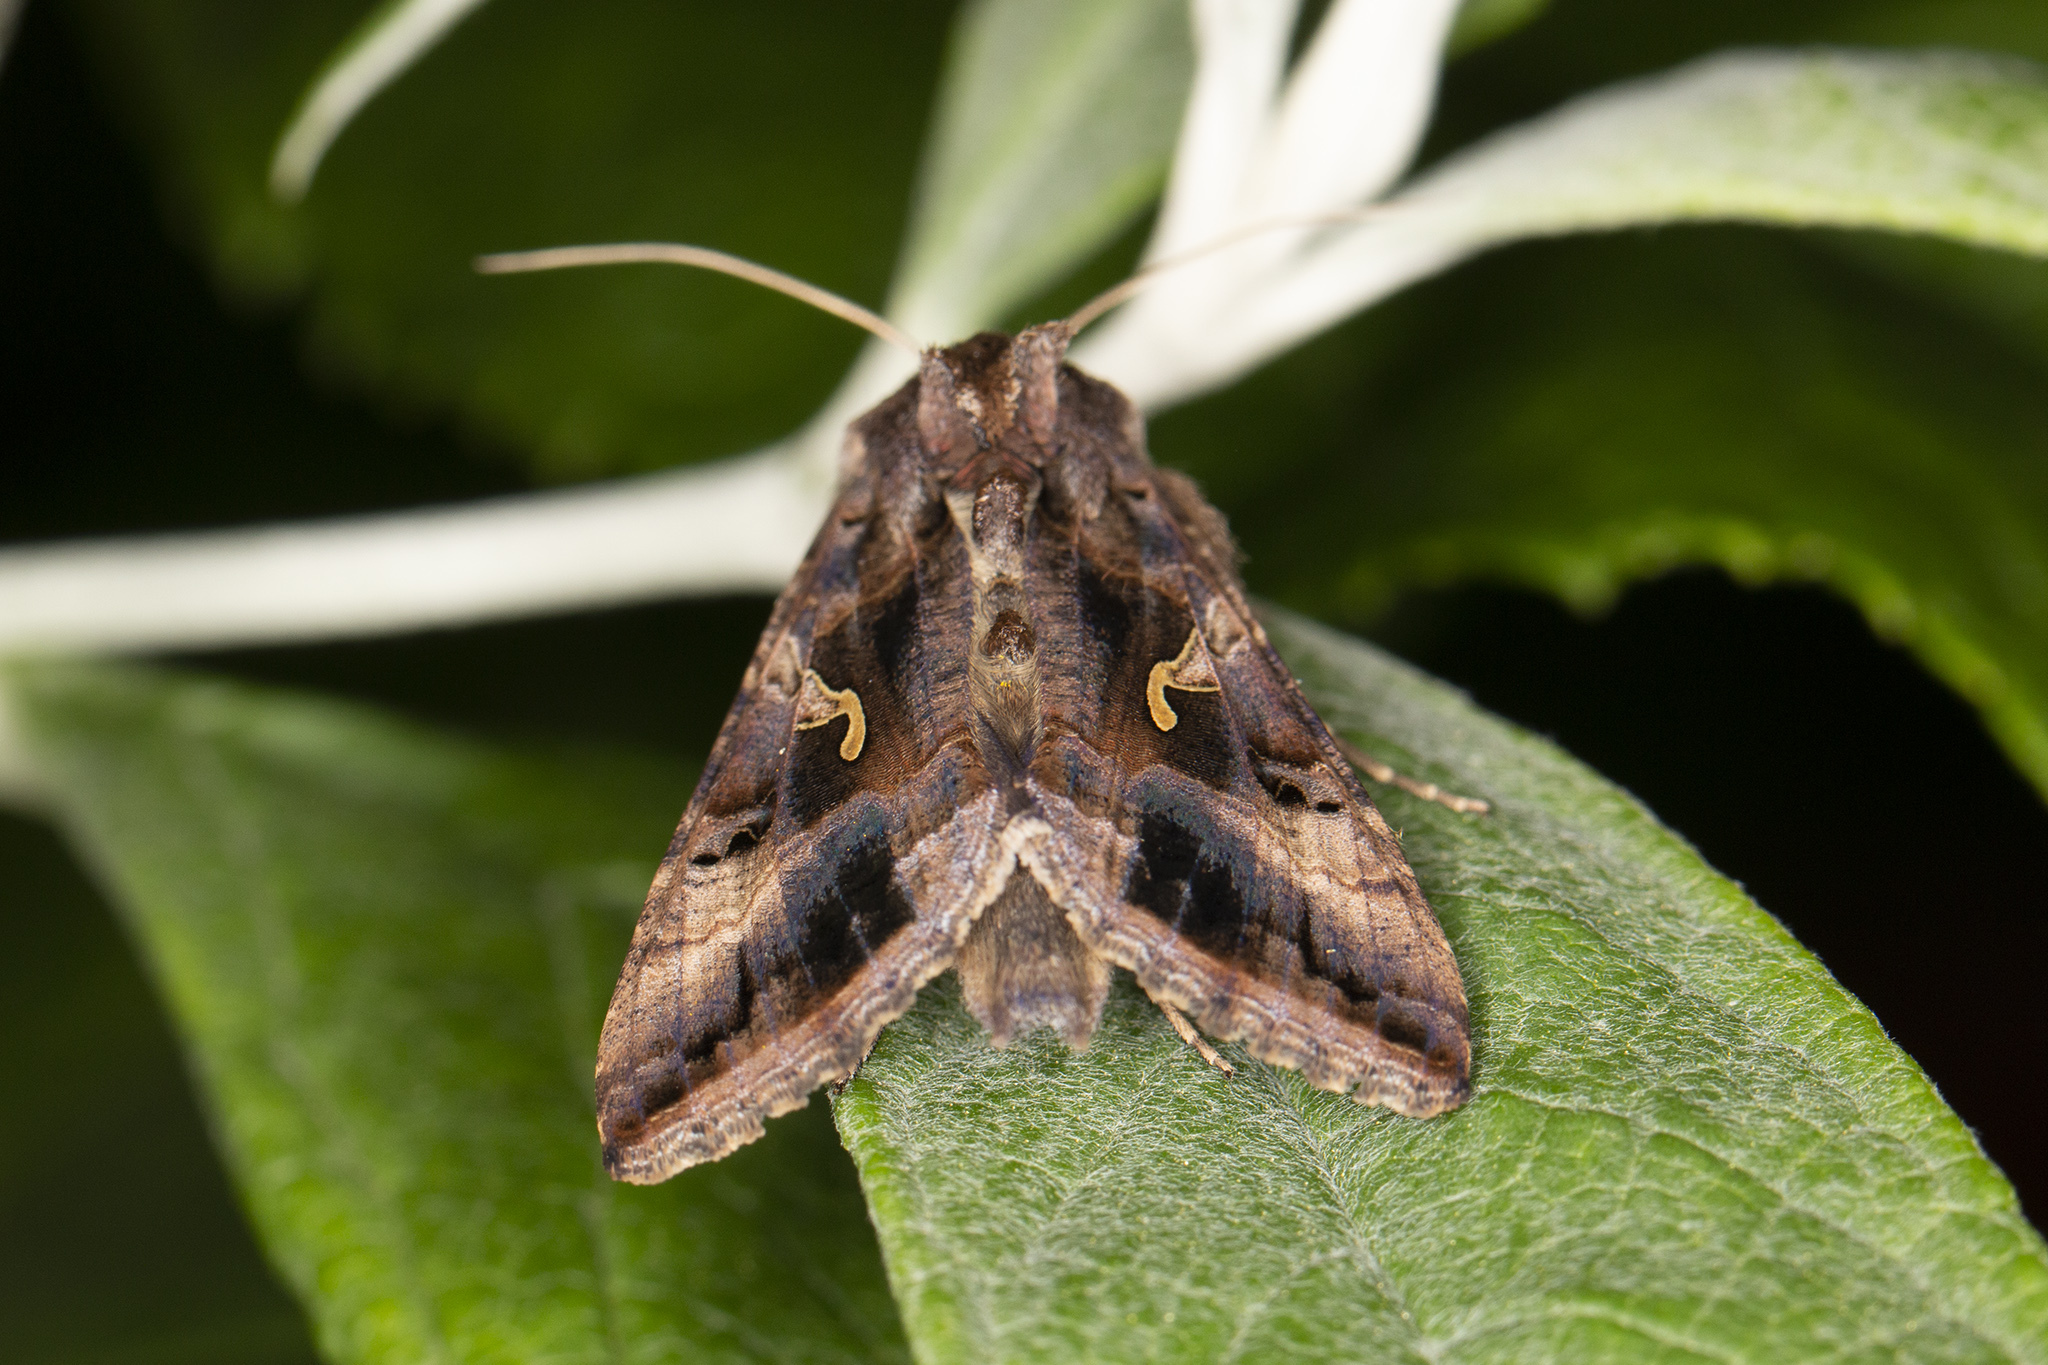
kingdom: Animalia
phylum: Arthropoda
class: Insecta
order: Lepidoptera
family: Noctuidae
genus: Autographa
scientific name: Autographa gamma
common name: Silver y
